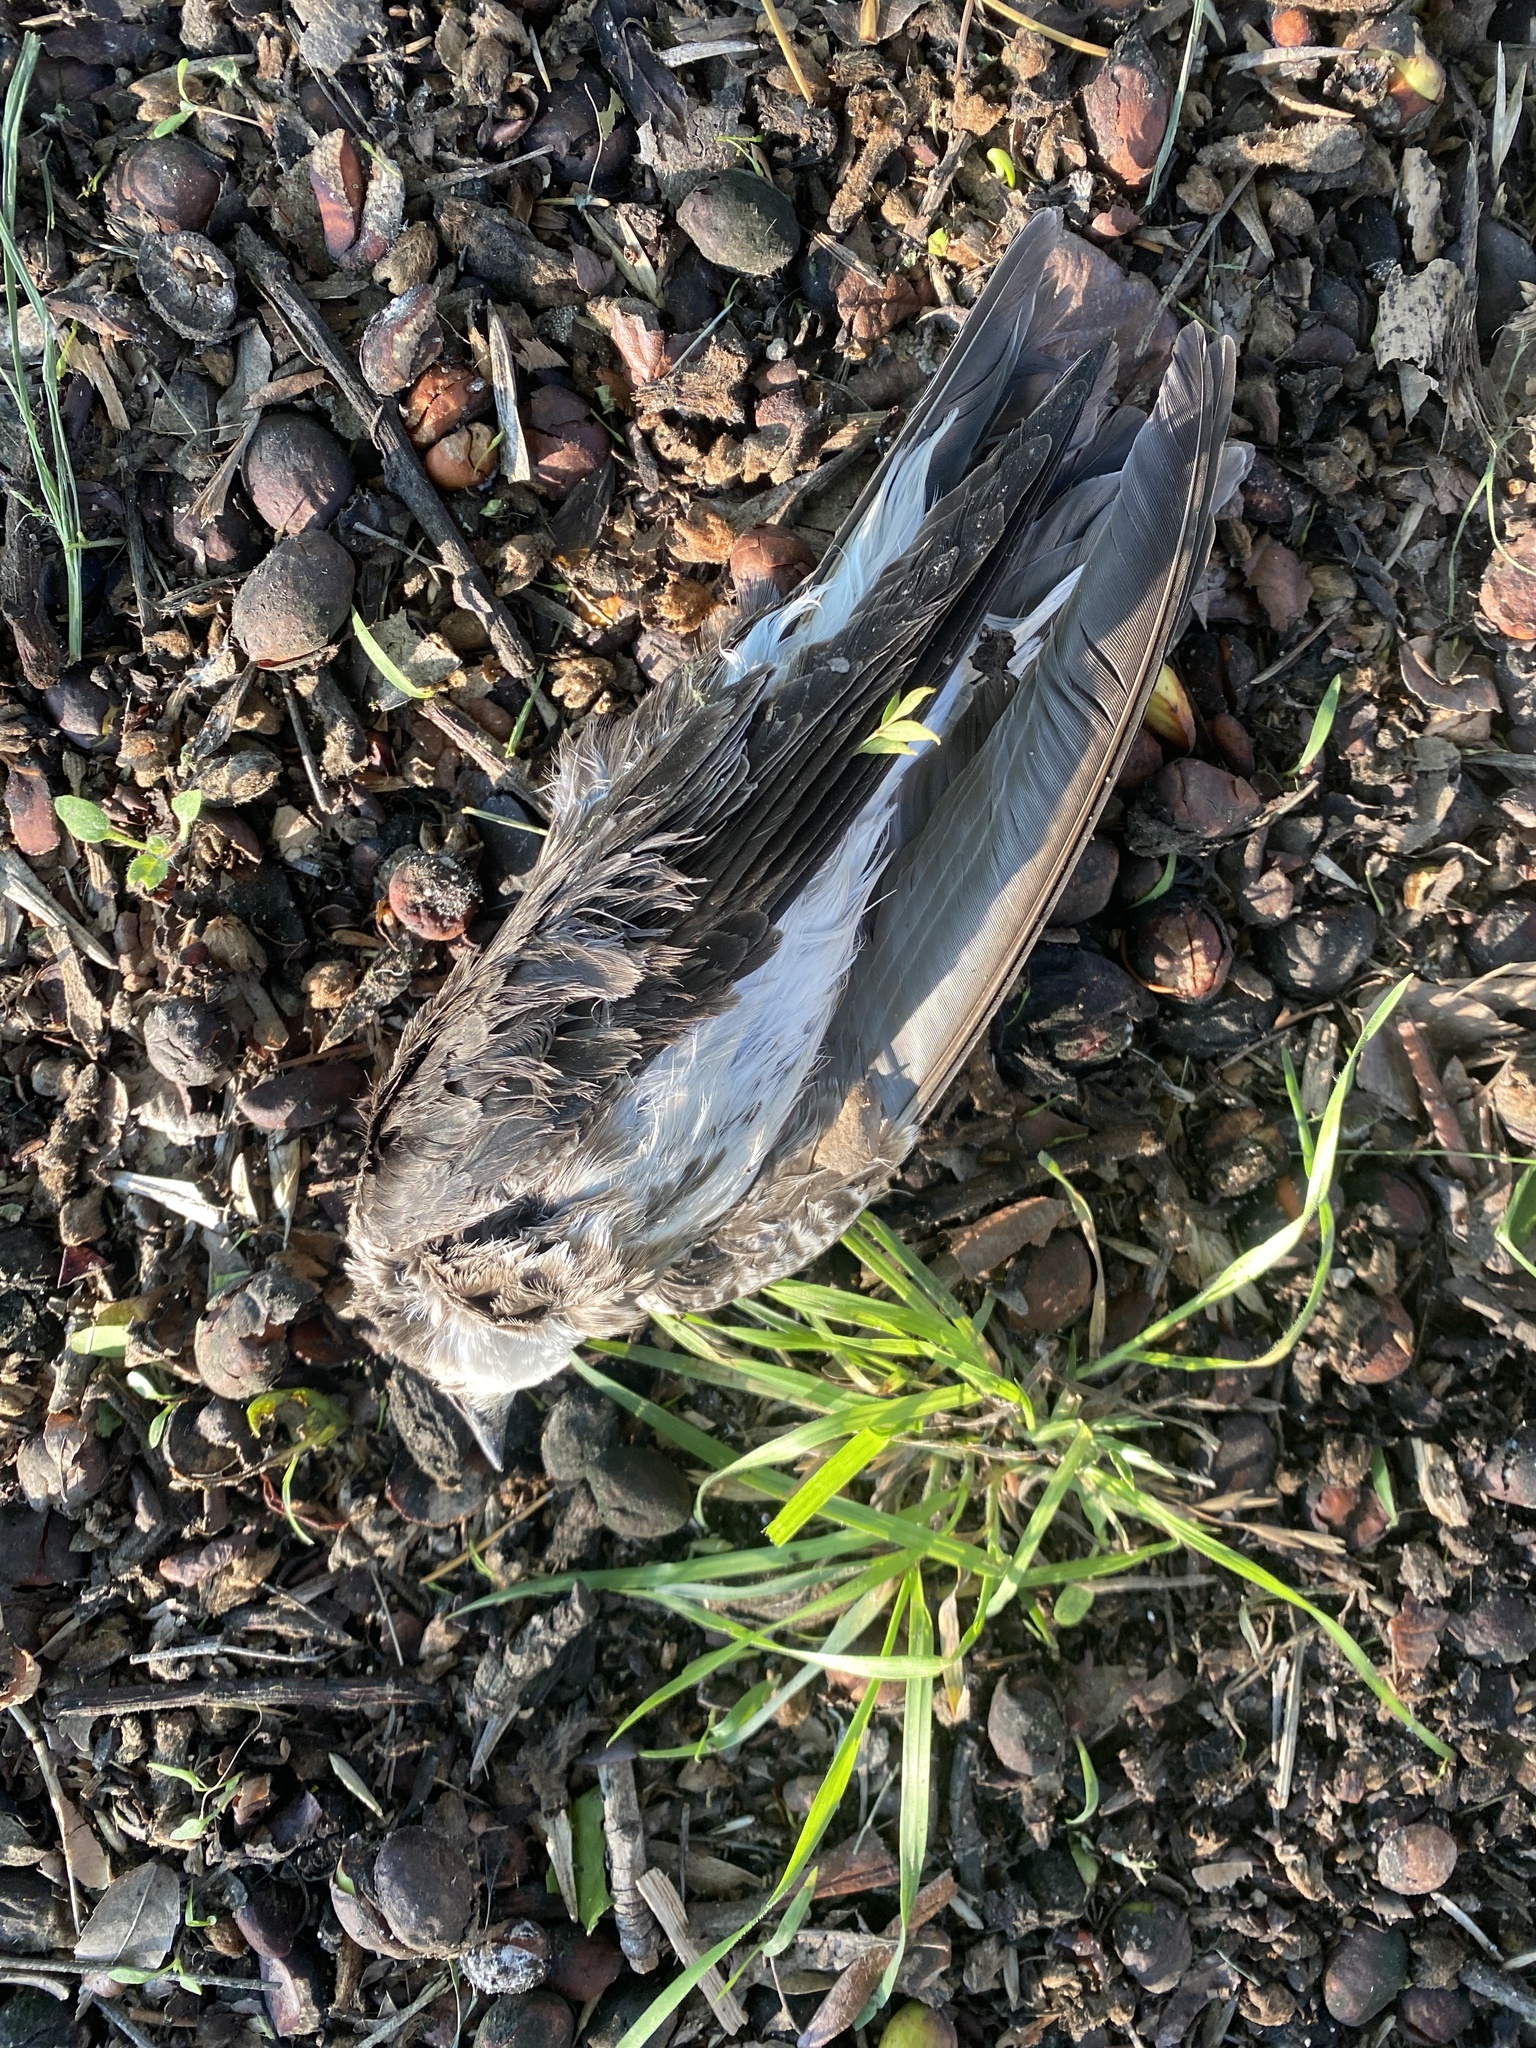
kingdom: Animalia
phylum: Chordata
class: Aves
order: Passeriformes
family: Hirundinidae
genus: Progne
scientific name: Progne tapera
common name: Brown-chested martin
